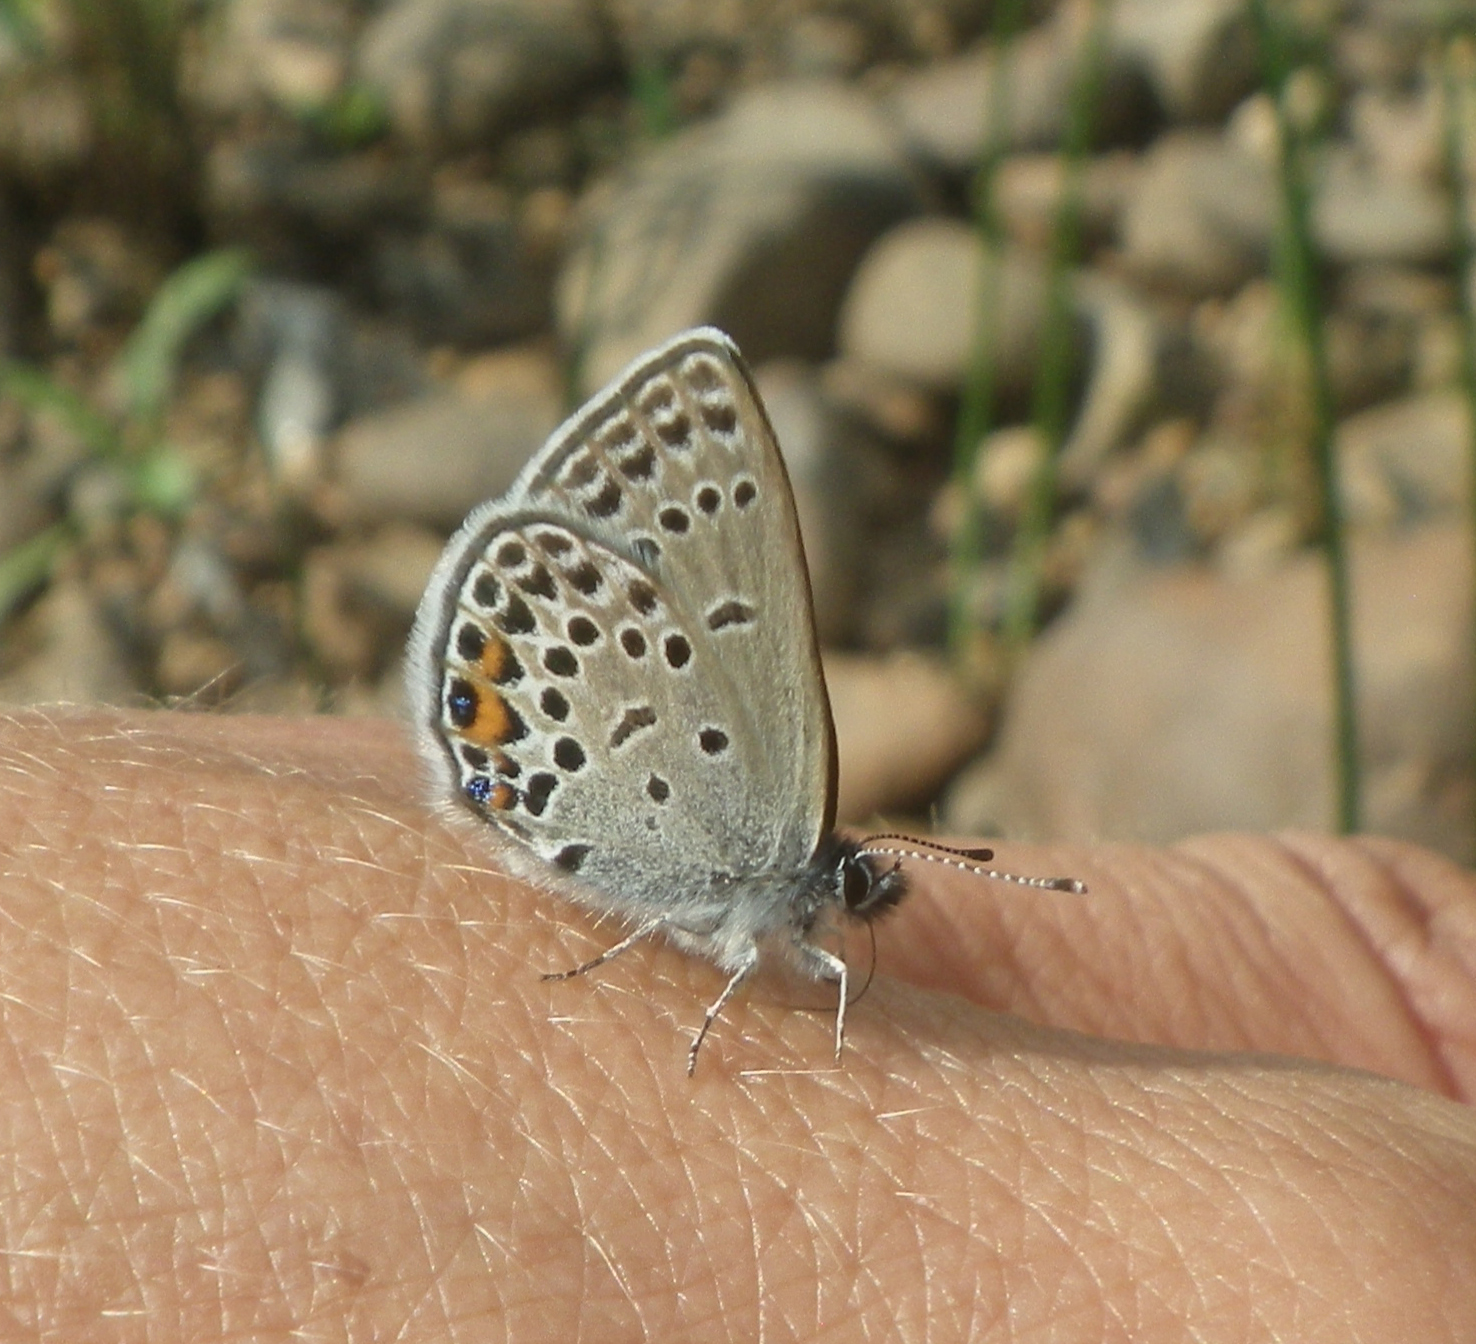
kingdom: Animalia
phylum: Arthropoda
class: Insecta
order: Lepidoptera
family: Lycaenidae
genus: Vacciniina
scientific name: Vacciniina optilete
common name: Cranberry blue
